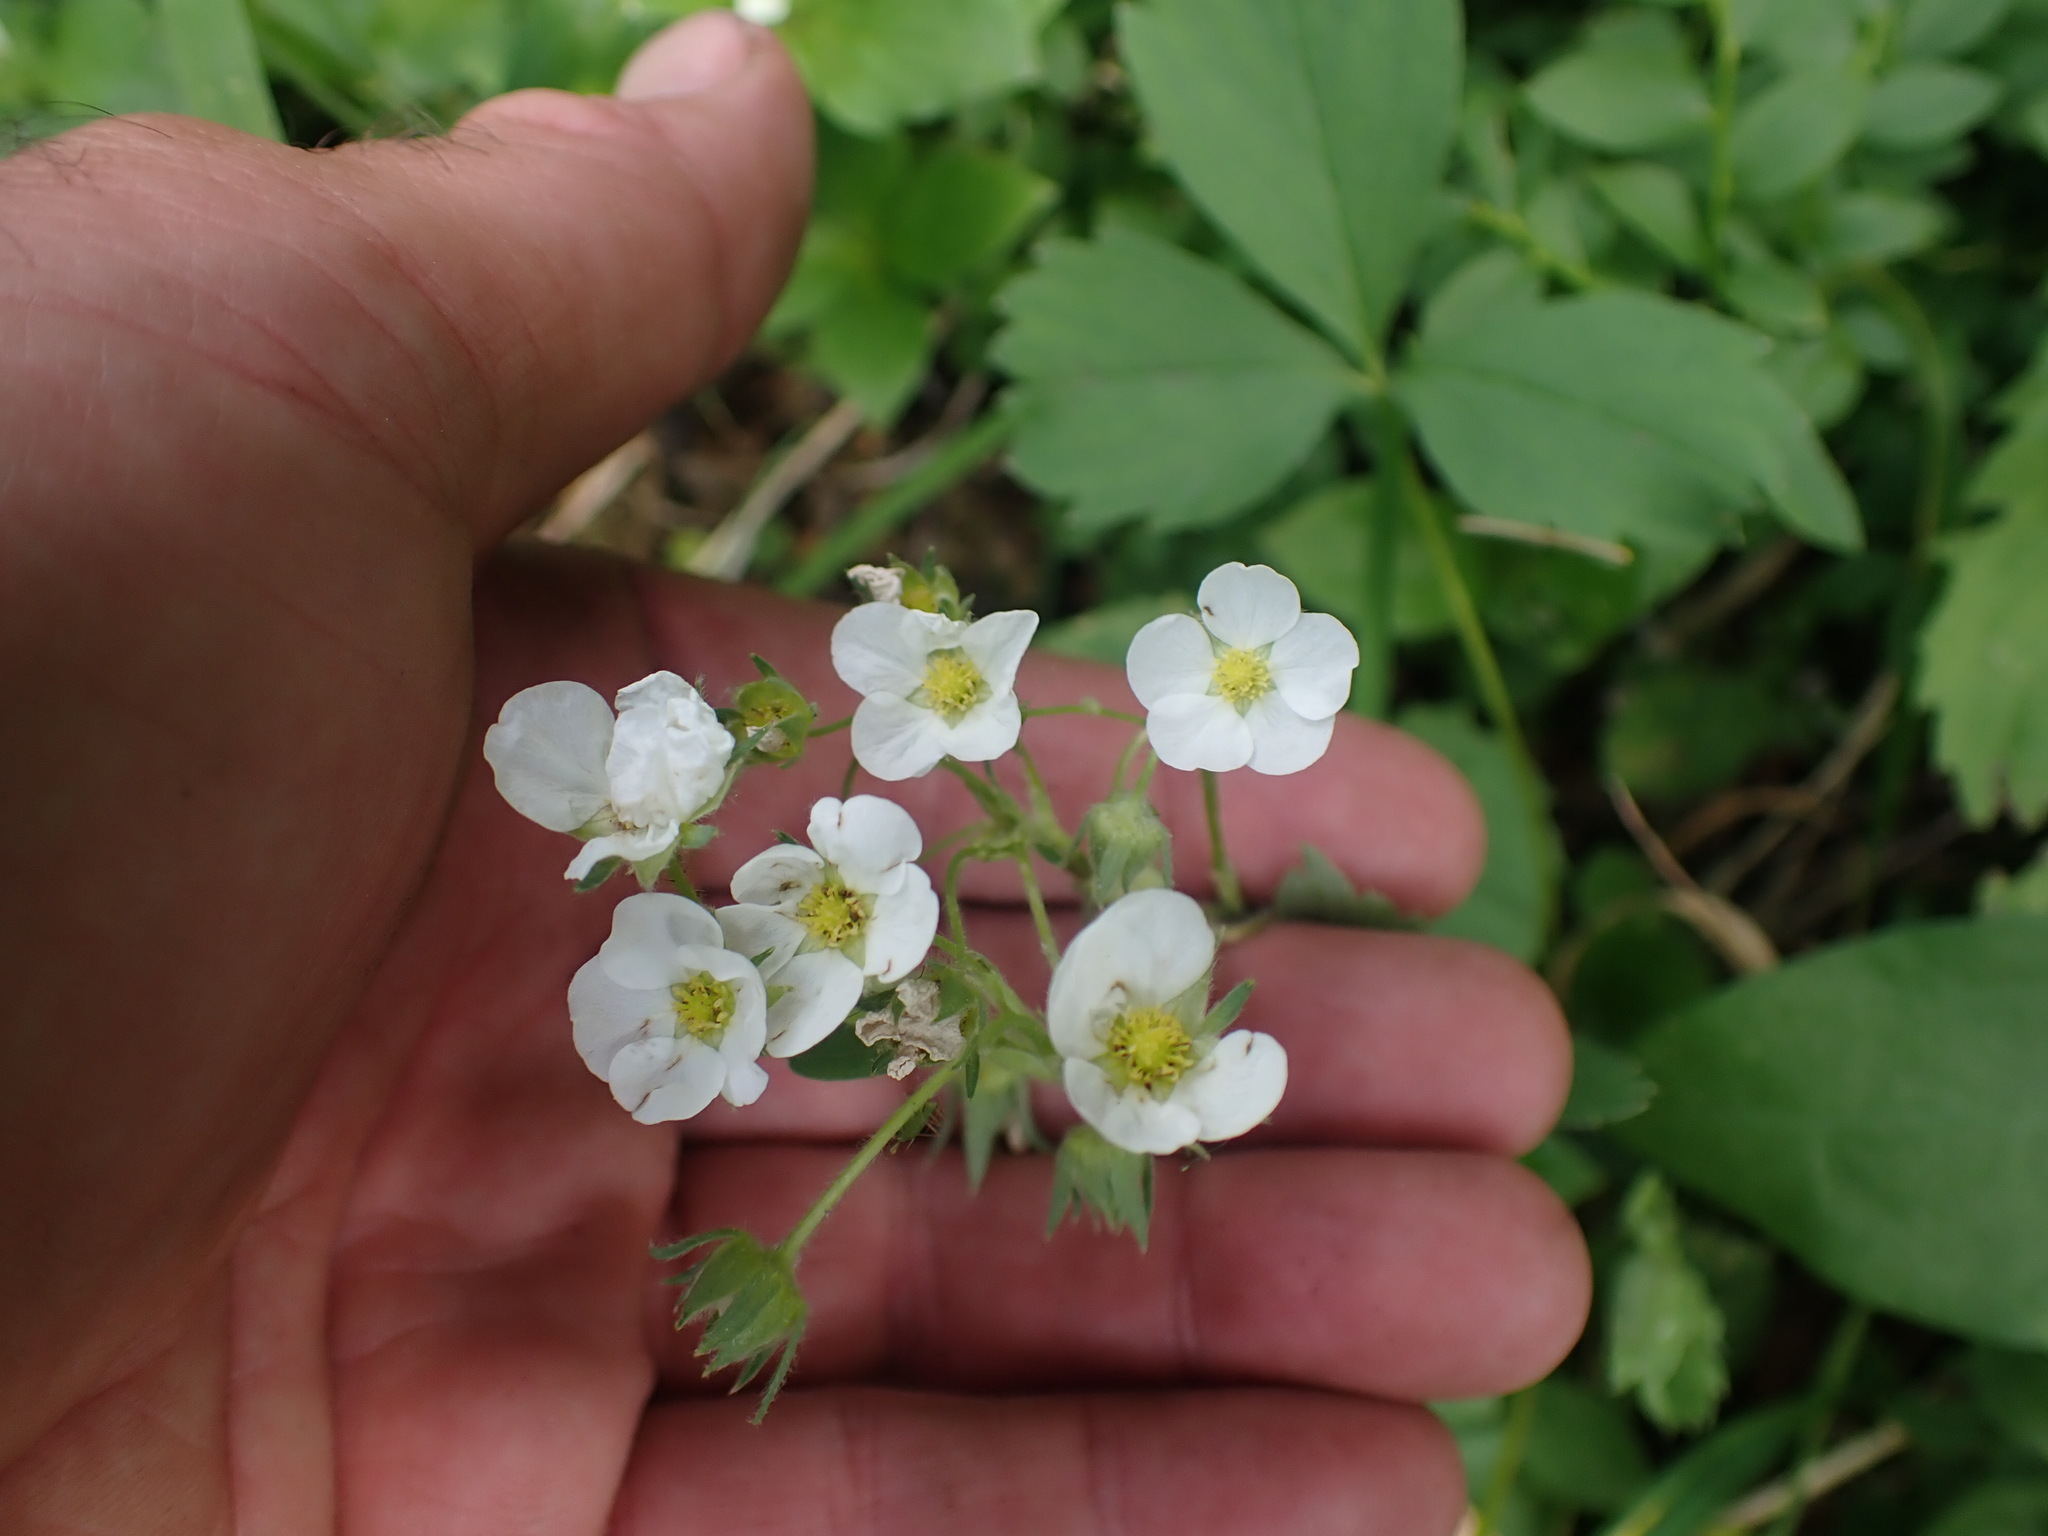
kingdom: Plantae
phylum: Tracheophyta
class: Magnoliopsida
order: Rosales
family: Rosaceae
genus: Fragaria
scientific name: Fragaria virginiana
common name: Thickleaved wild strawberry
